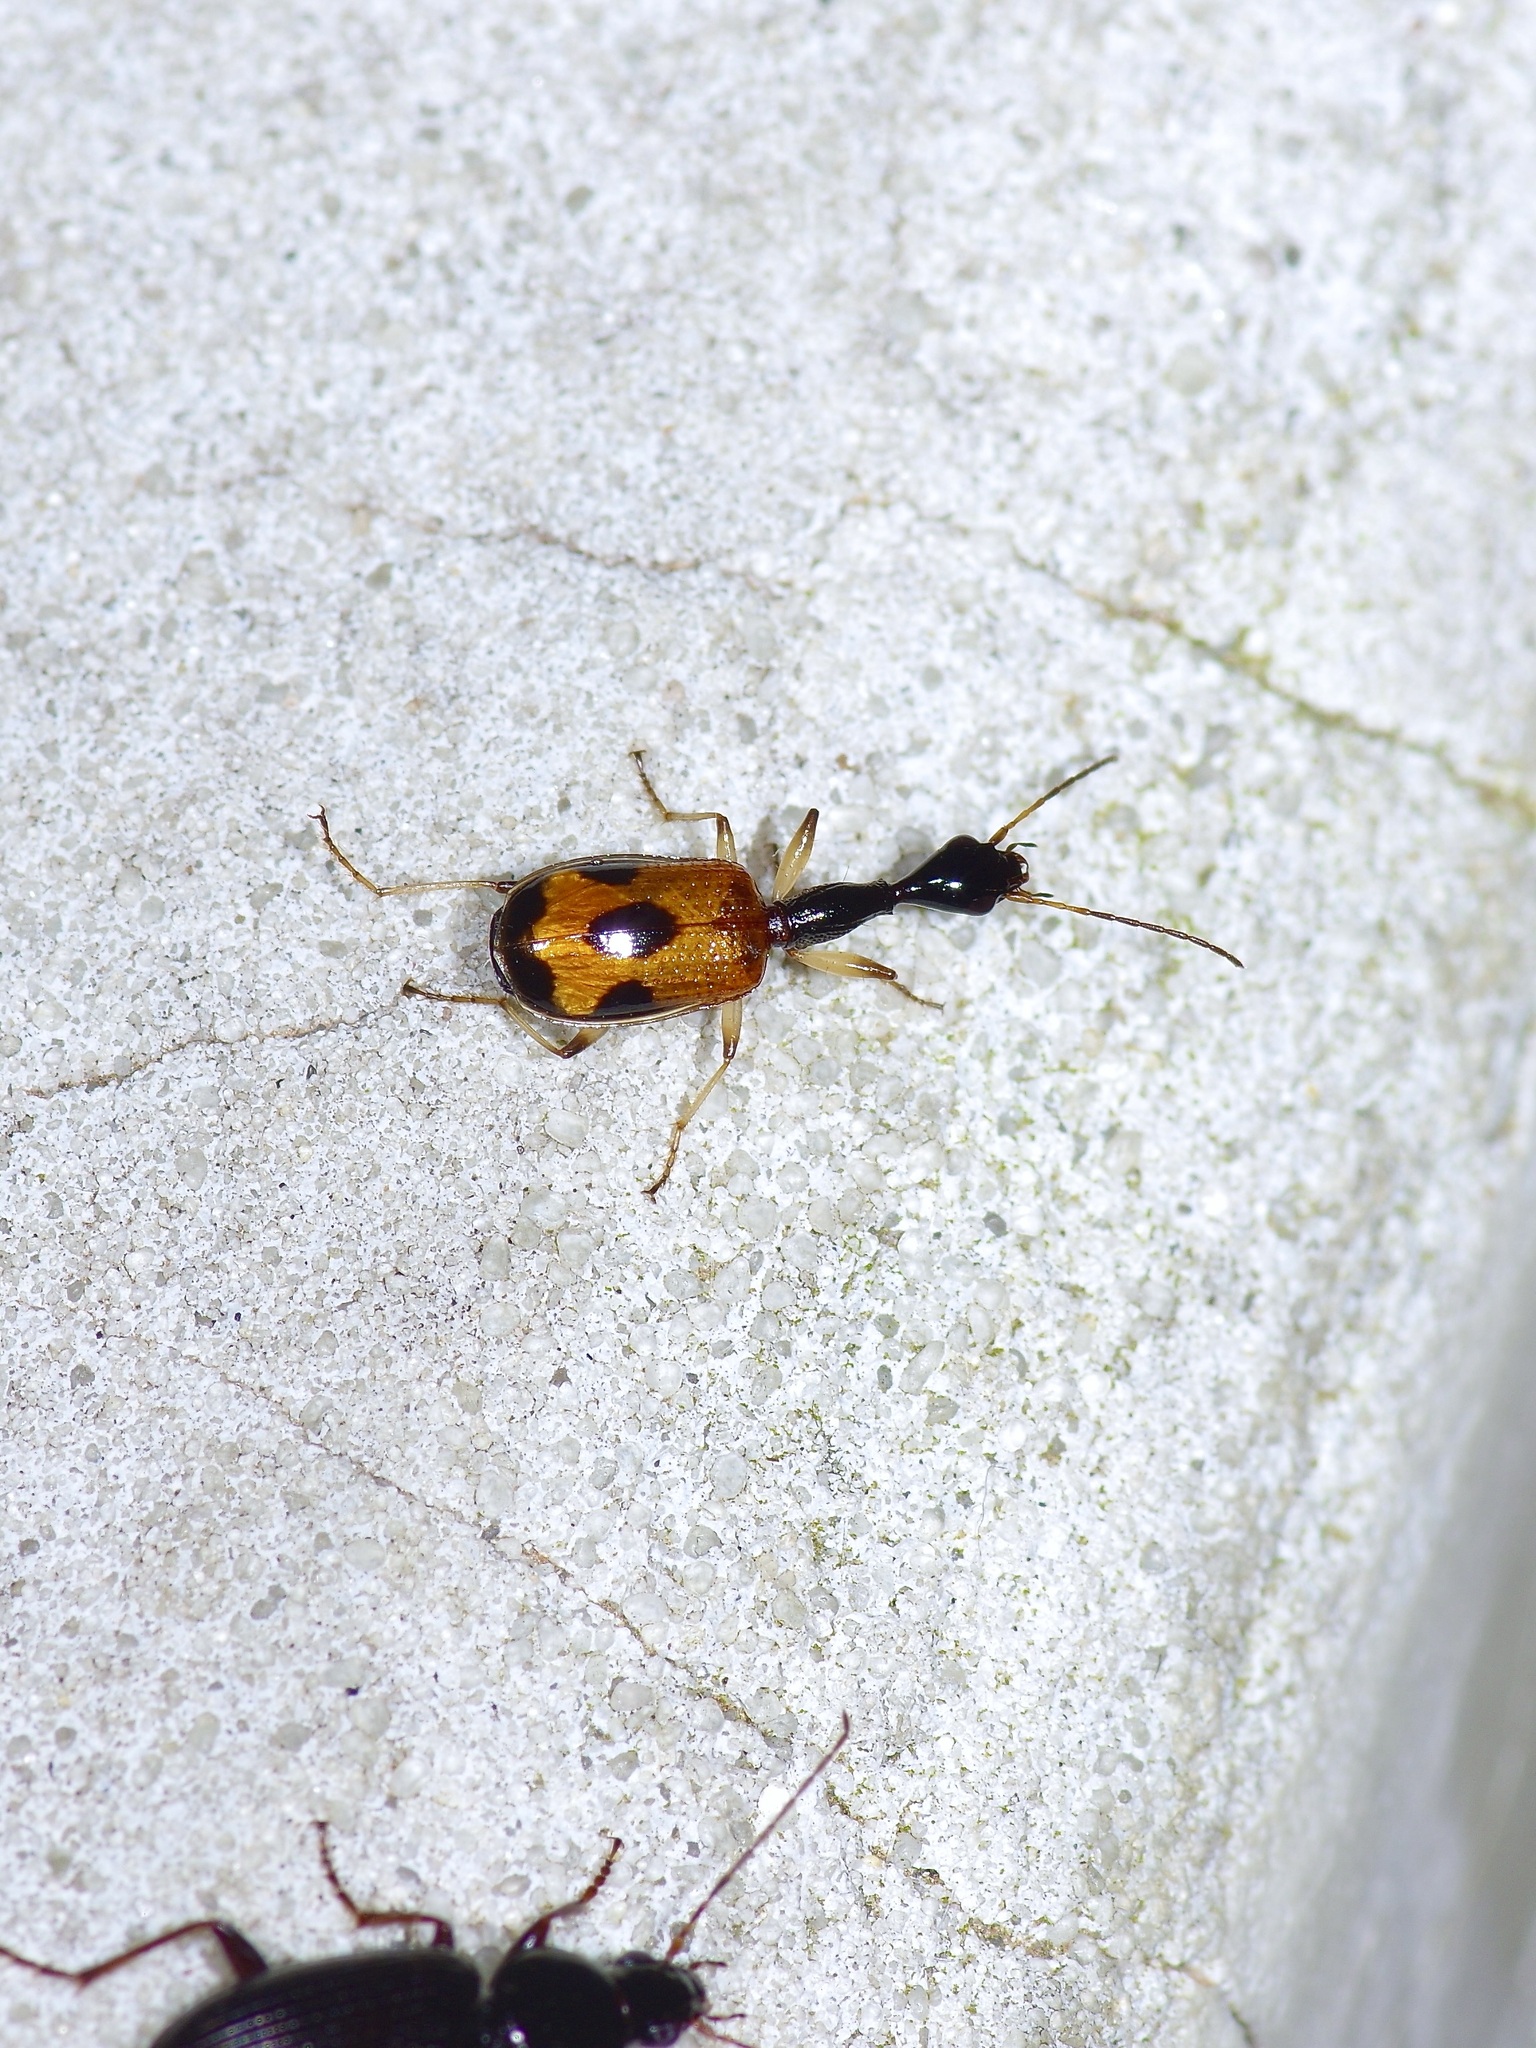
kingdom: Animalia
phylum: Arthropoda
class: Insecta
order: Coleoptera
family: Carabidae
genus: Colliuris
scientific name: Colliuris pensylvanica
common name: Long-necked ground beetle
